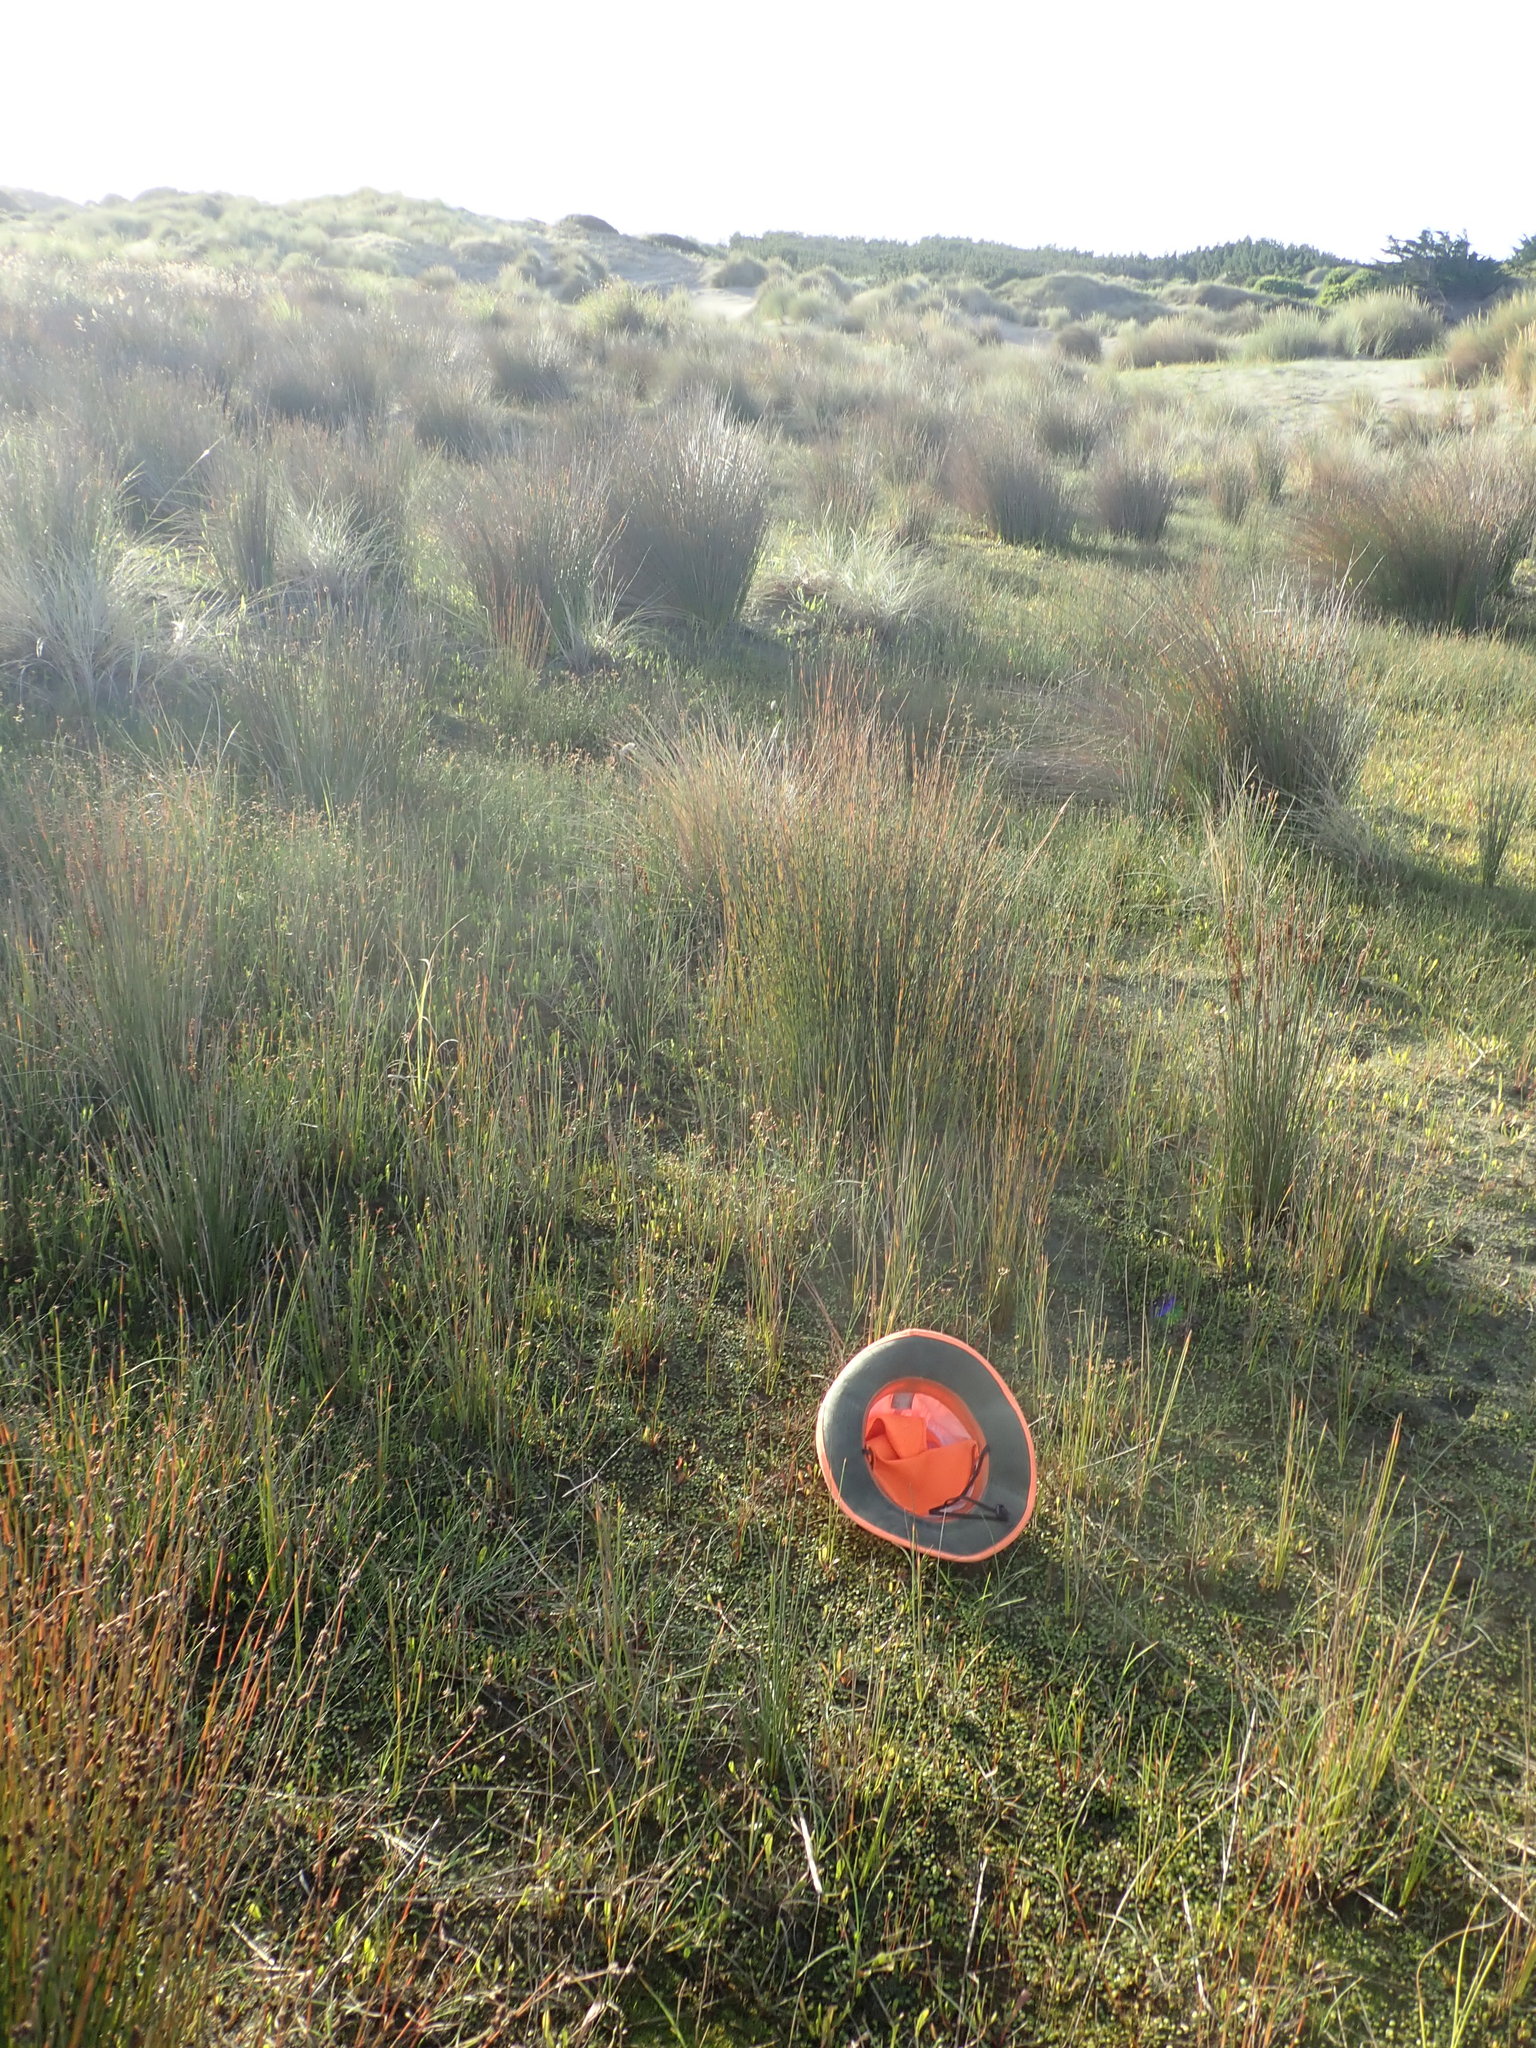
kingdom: Plantae
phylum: Tracheophyta
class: Magnoliopsida
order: Asterales
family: Goodeniaceae
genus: Goodenia
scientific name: Goodenia heenanii
